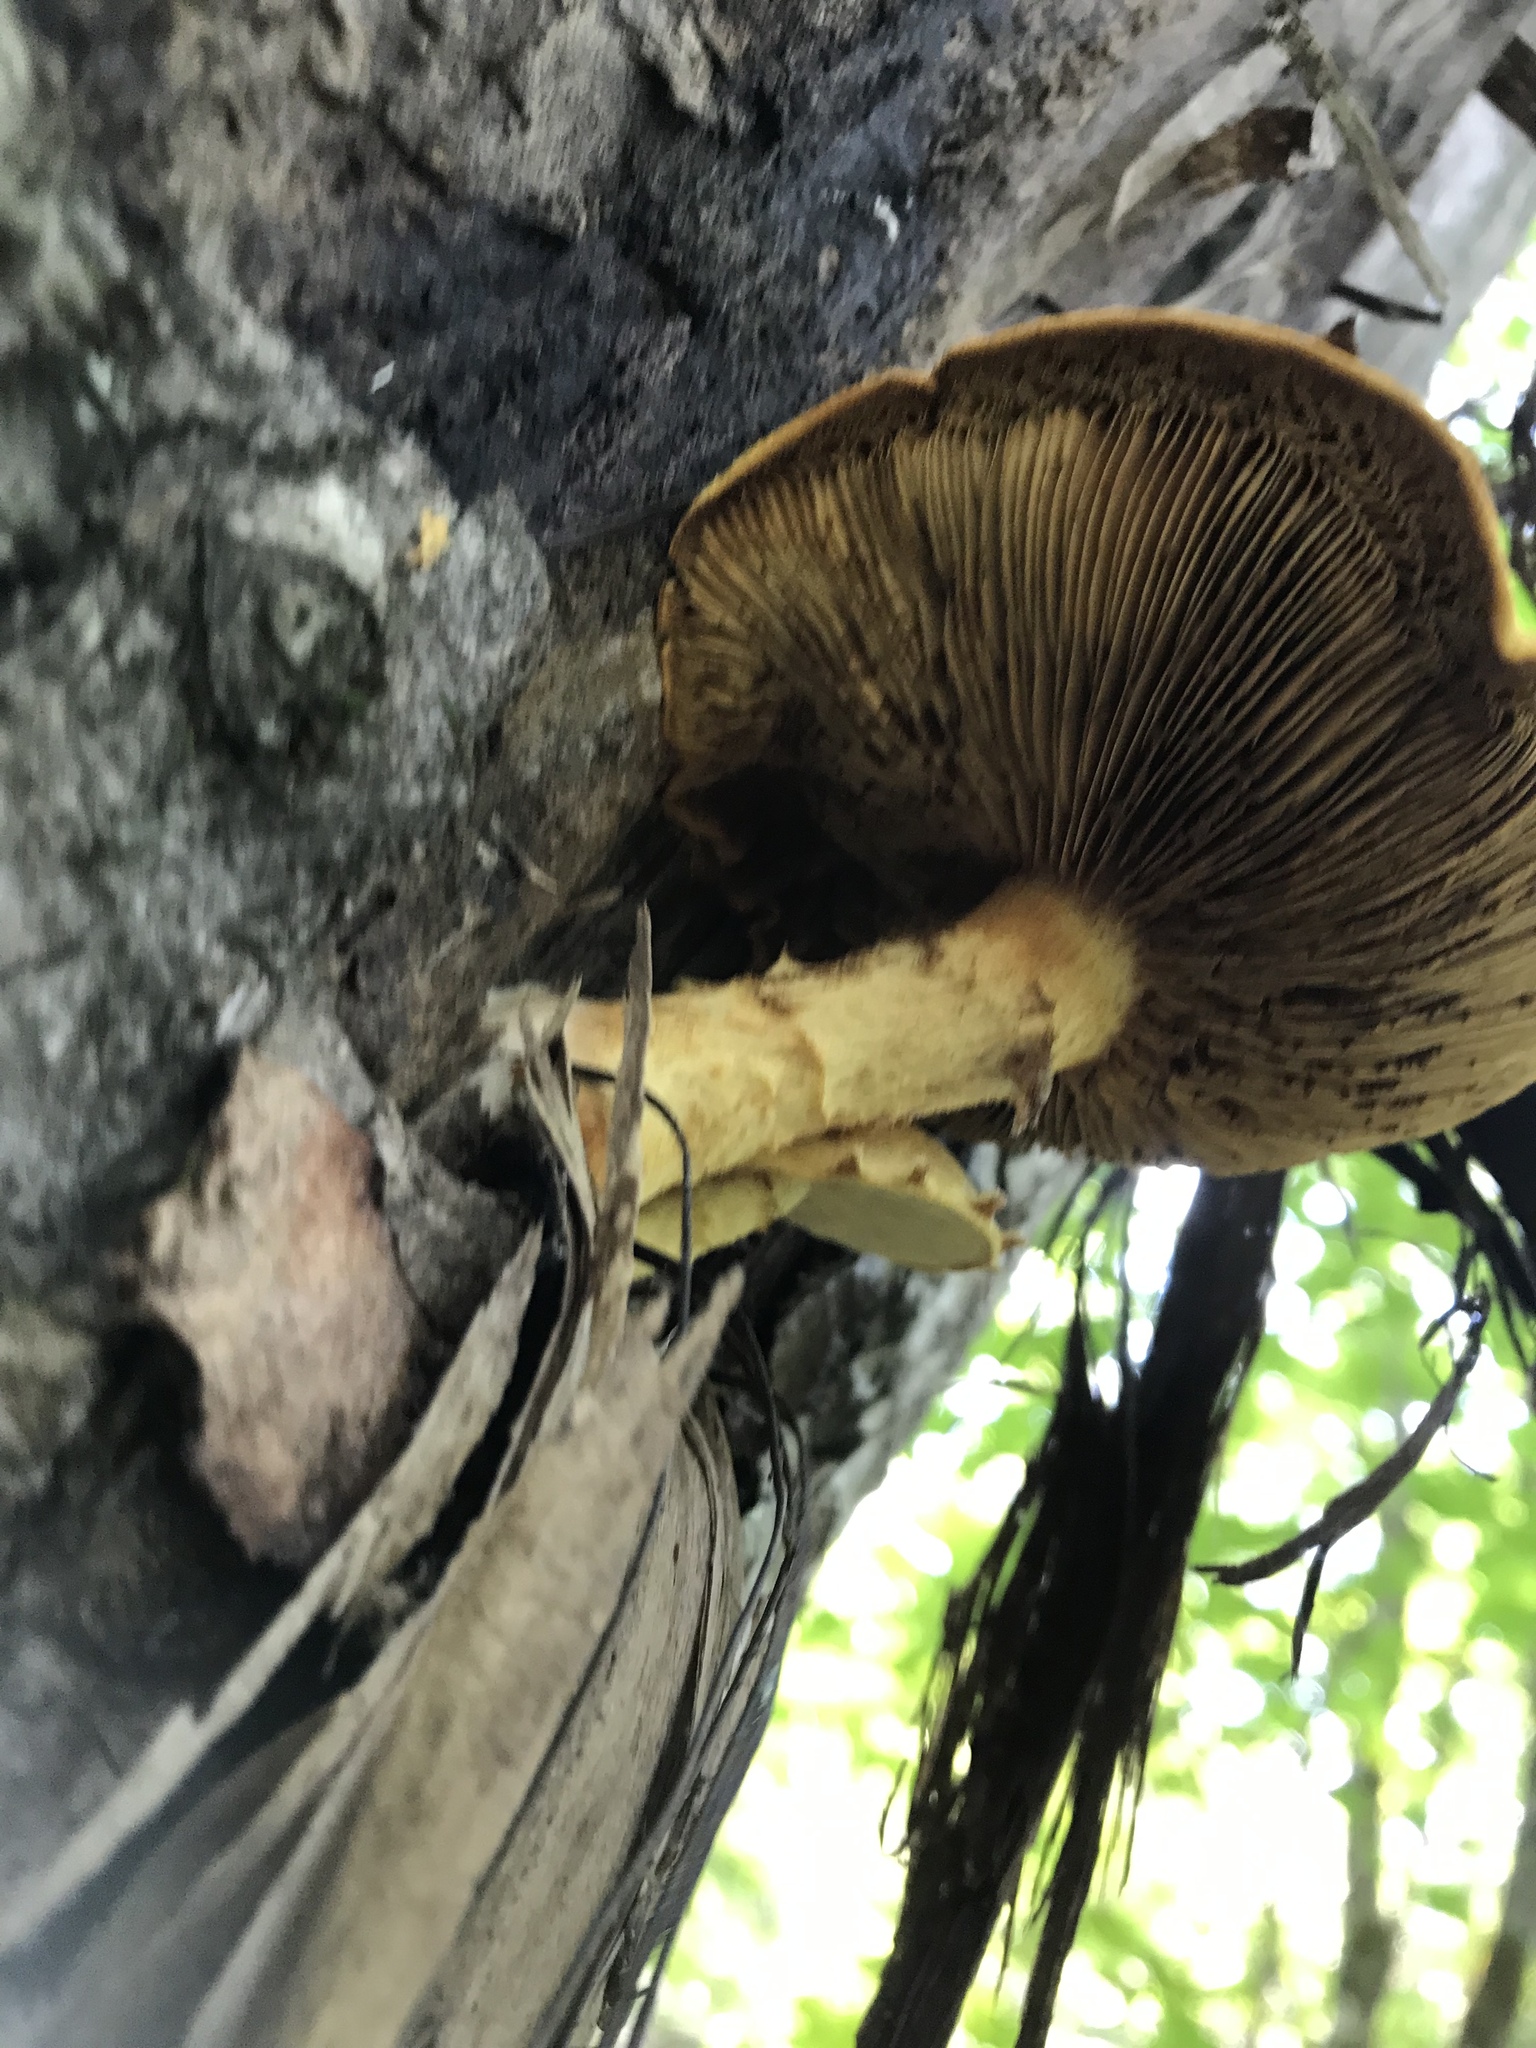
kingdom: Fungi
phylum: Basidiomycota
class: Agaricomycetes
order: Agaricales
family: Crepidotaceae
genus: Pleuroflammula
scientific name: Pleuroflammula multifolia
